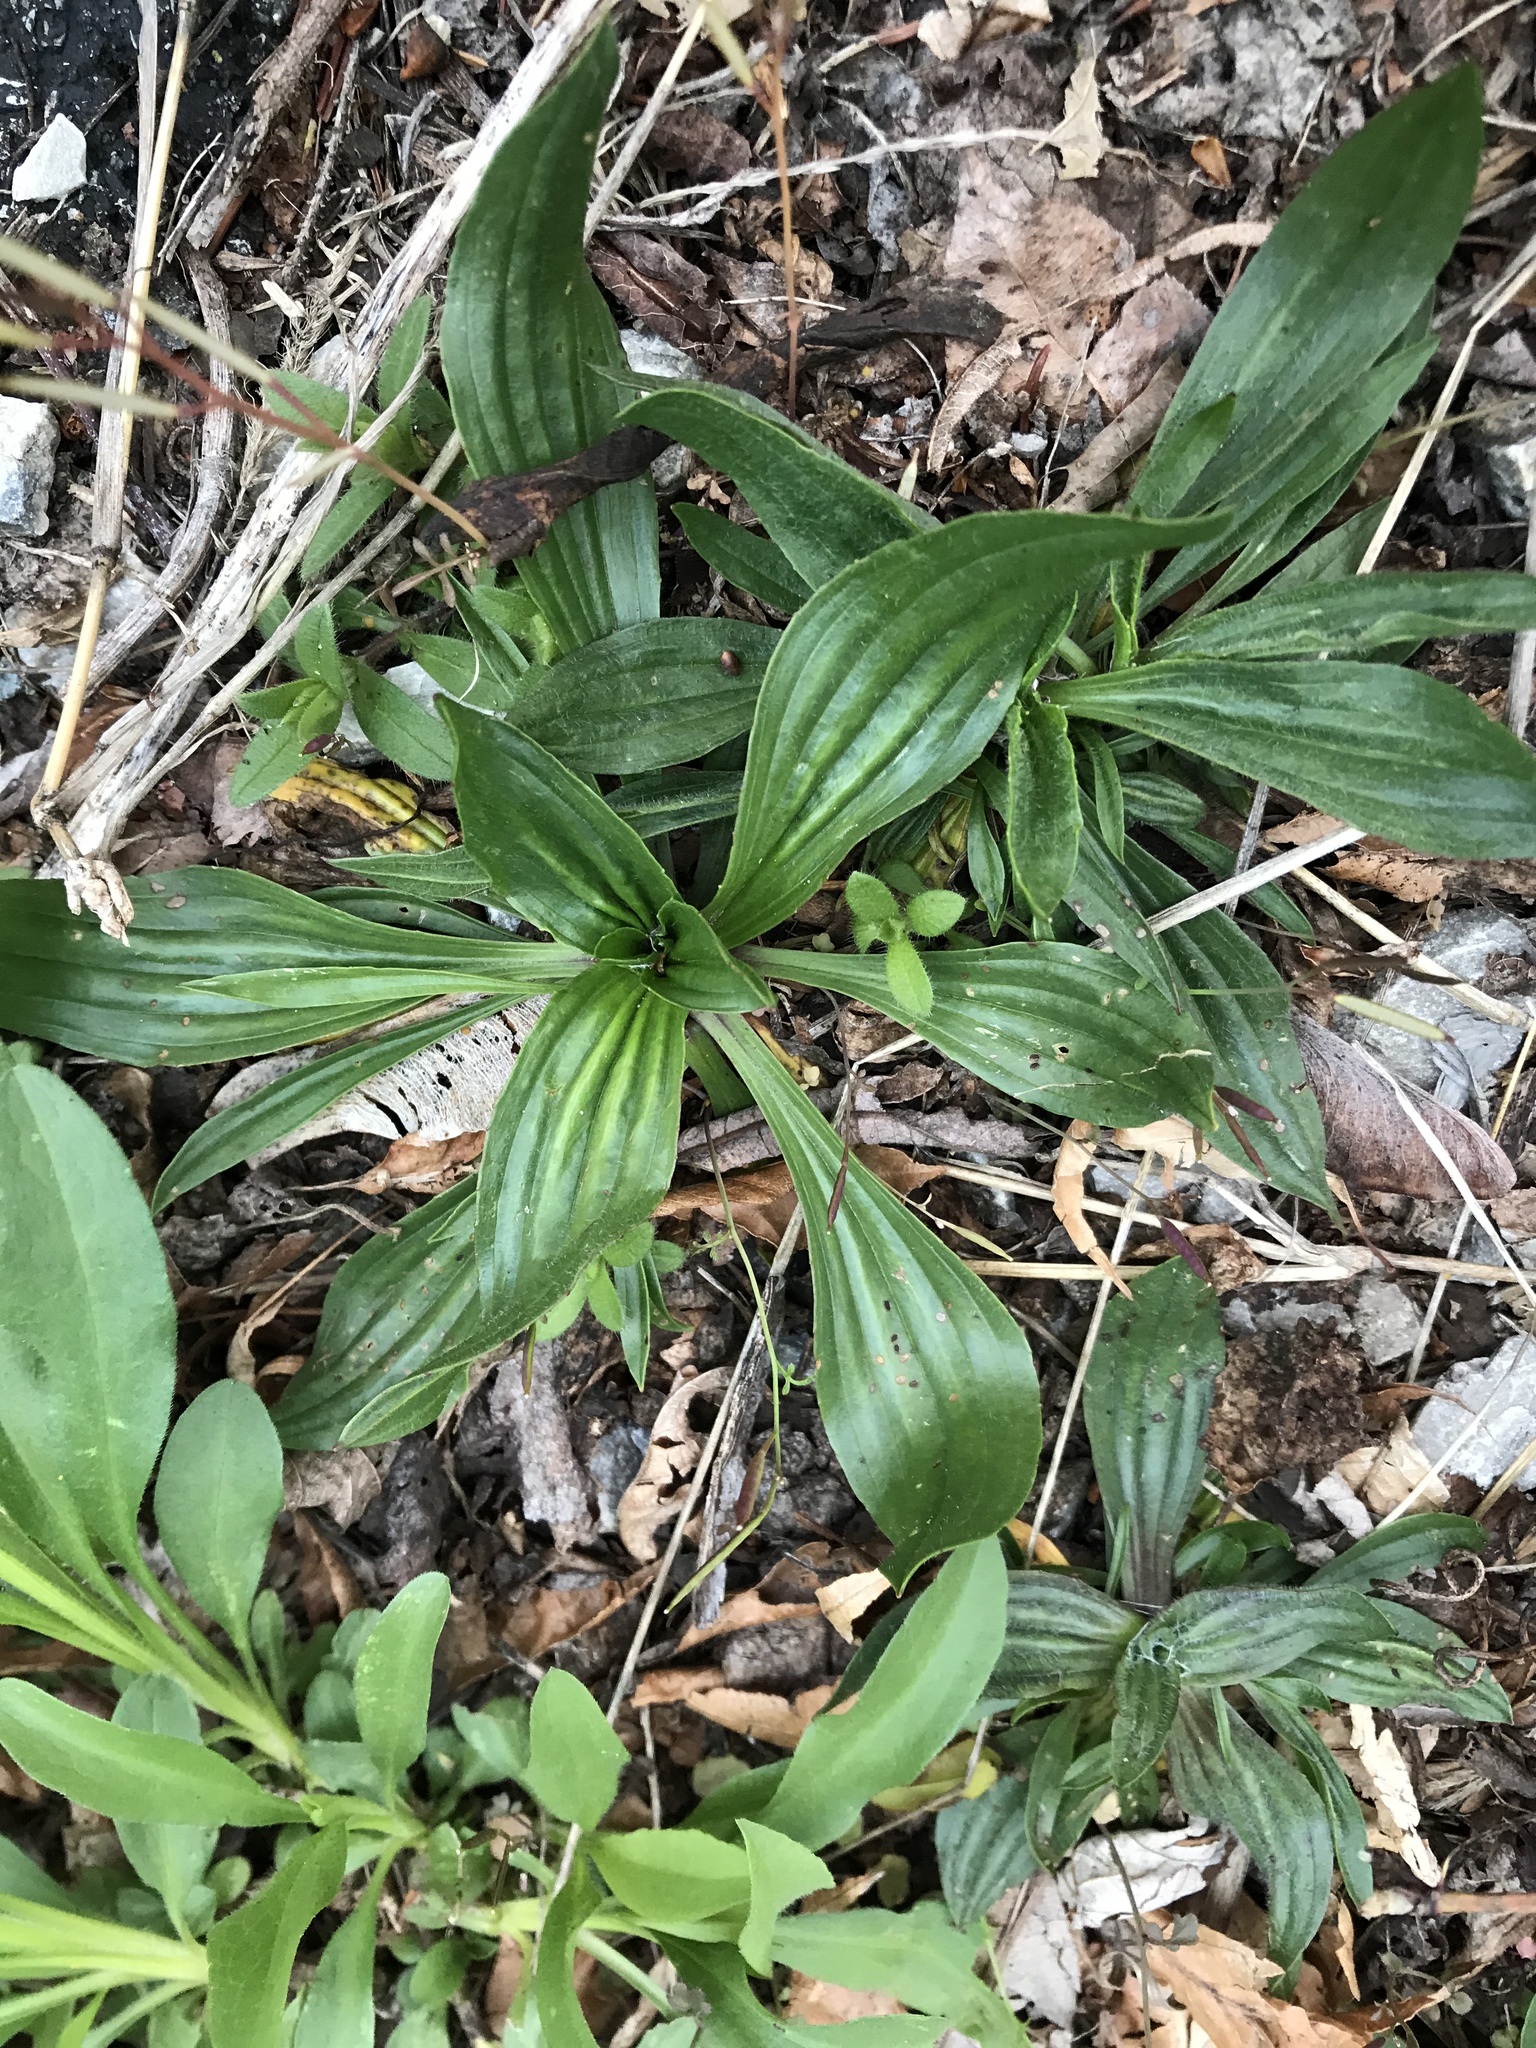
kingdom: Plantae
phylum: Tracheophyta
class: Magnoliopsida
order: Lamiales
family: Plantaginaceae
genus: Plantago
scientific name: Plantago lanceolata
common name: Ribwort plantain
